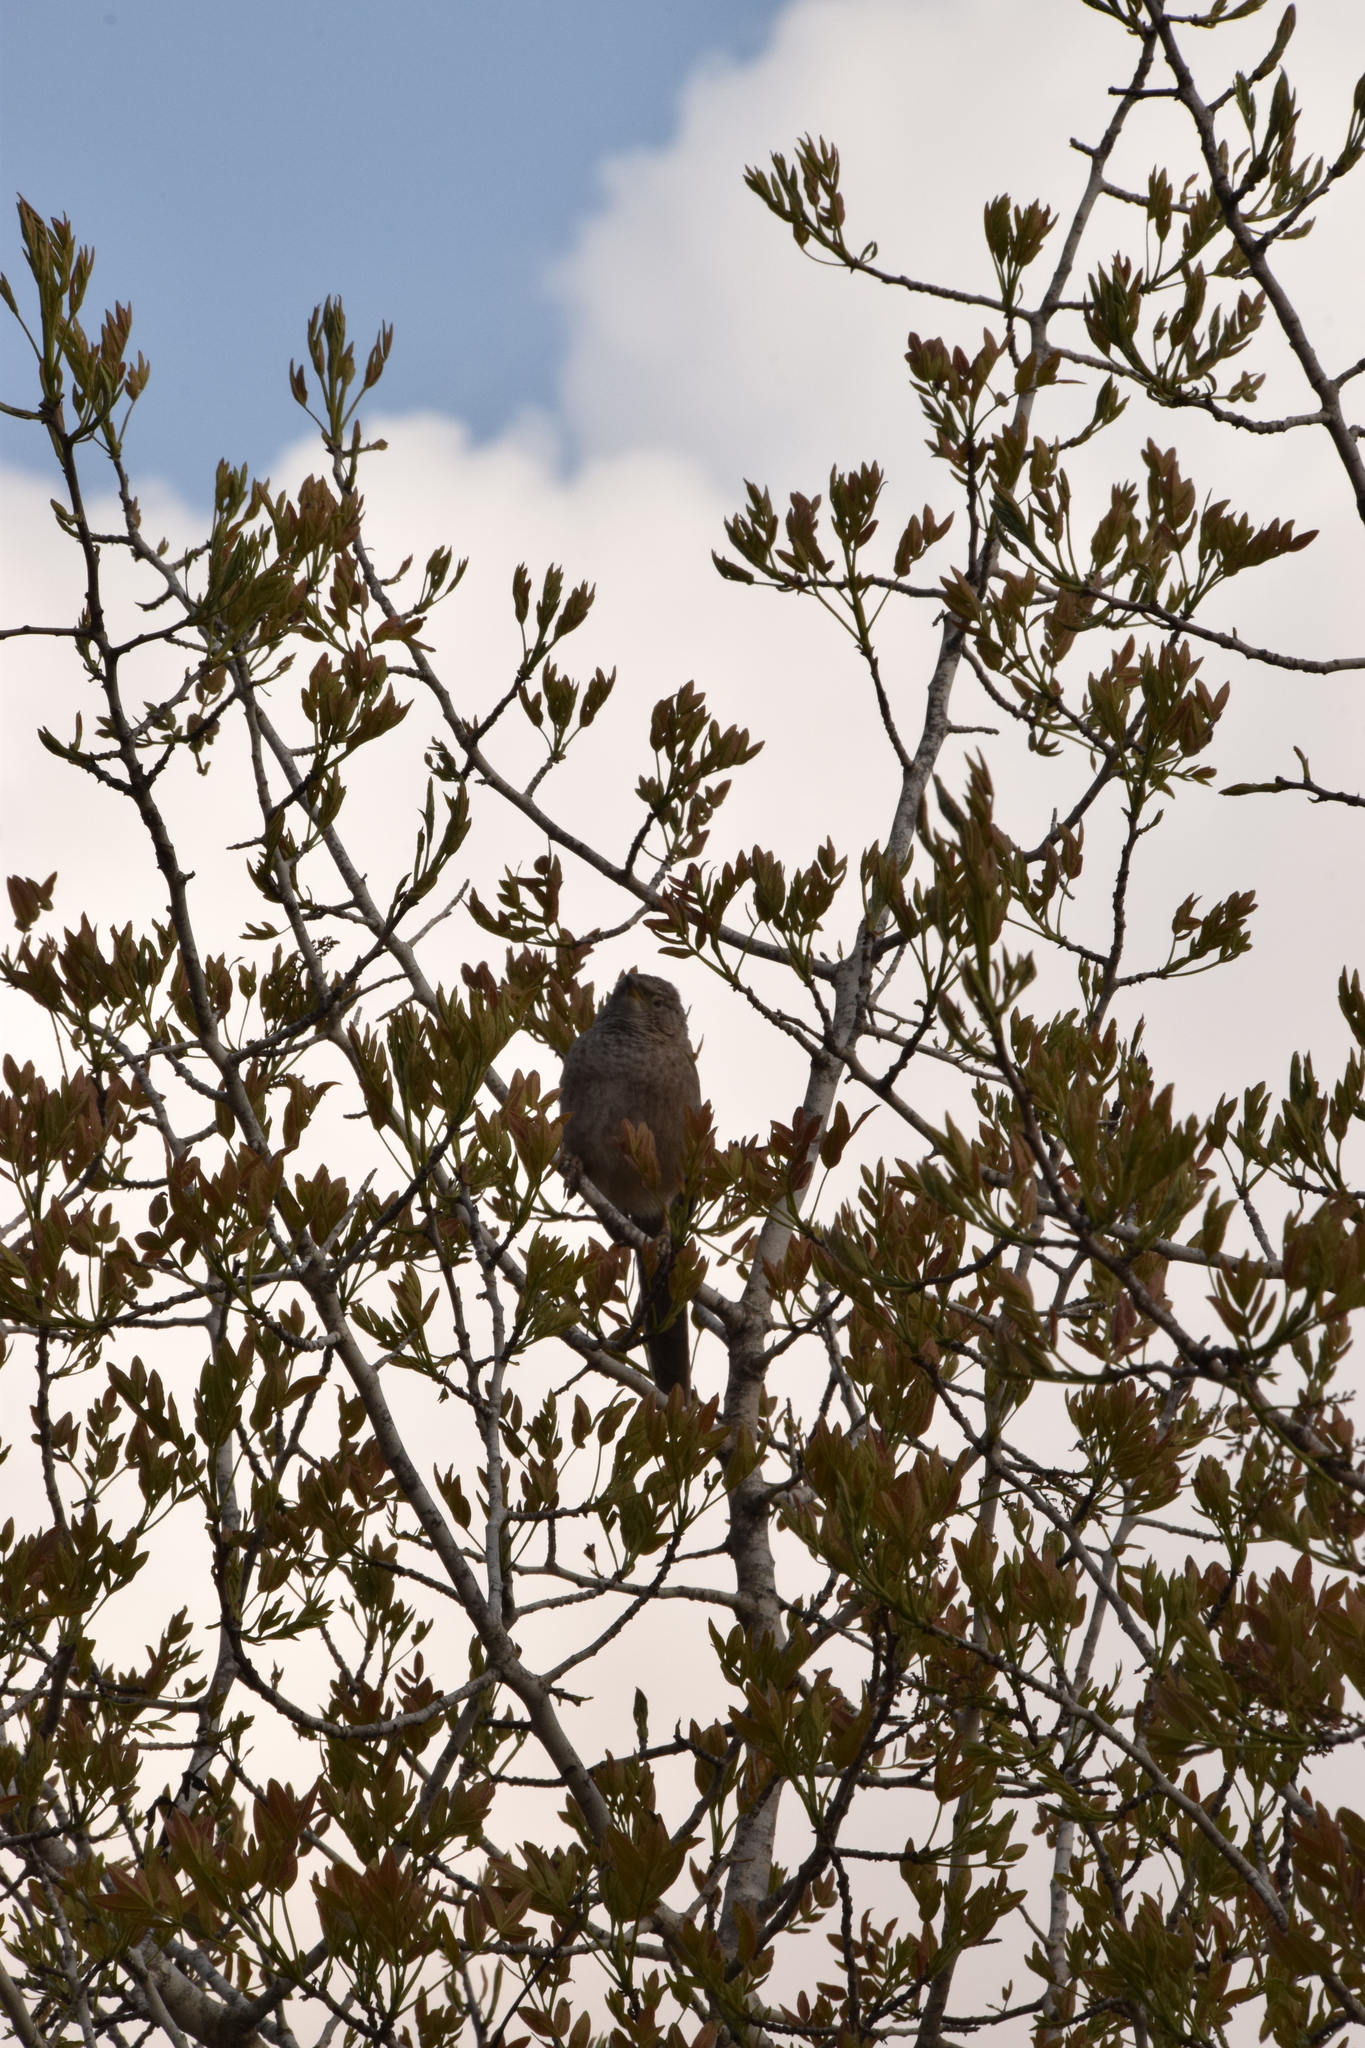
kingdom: Animalia
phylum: Chordata
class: Aves
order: Passeriformes
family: Leiothrichidae
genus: Turdoides
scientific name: Turdoides squamiceps
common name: Arabian babbler
